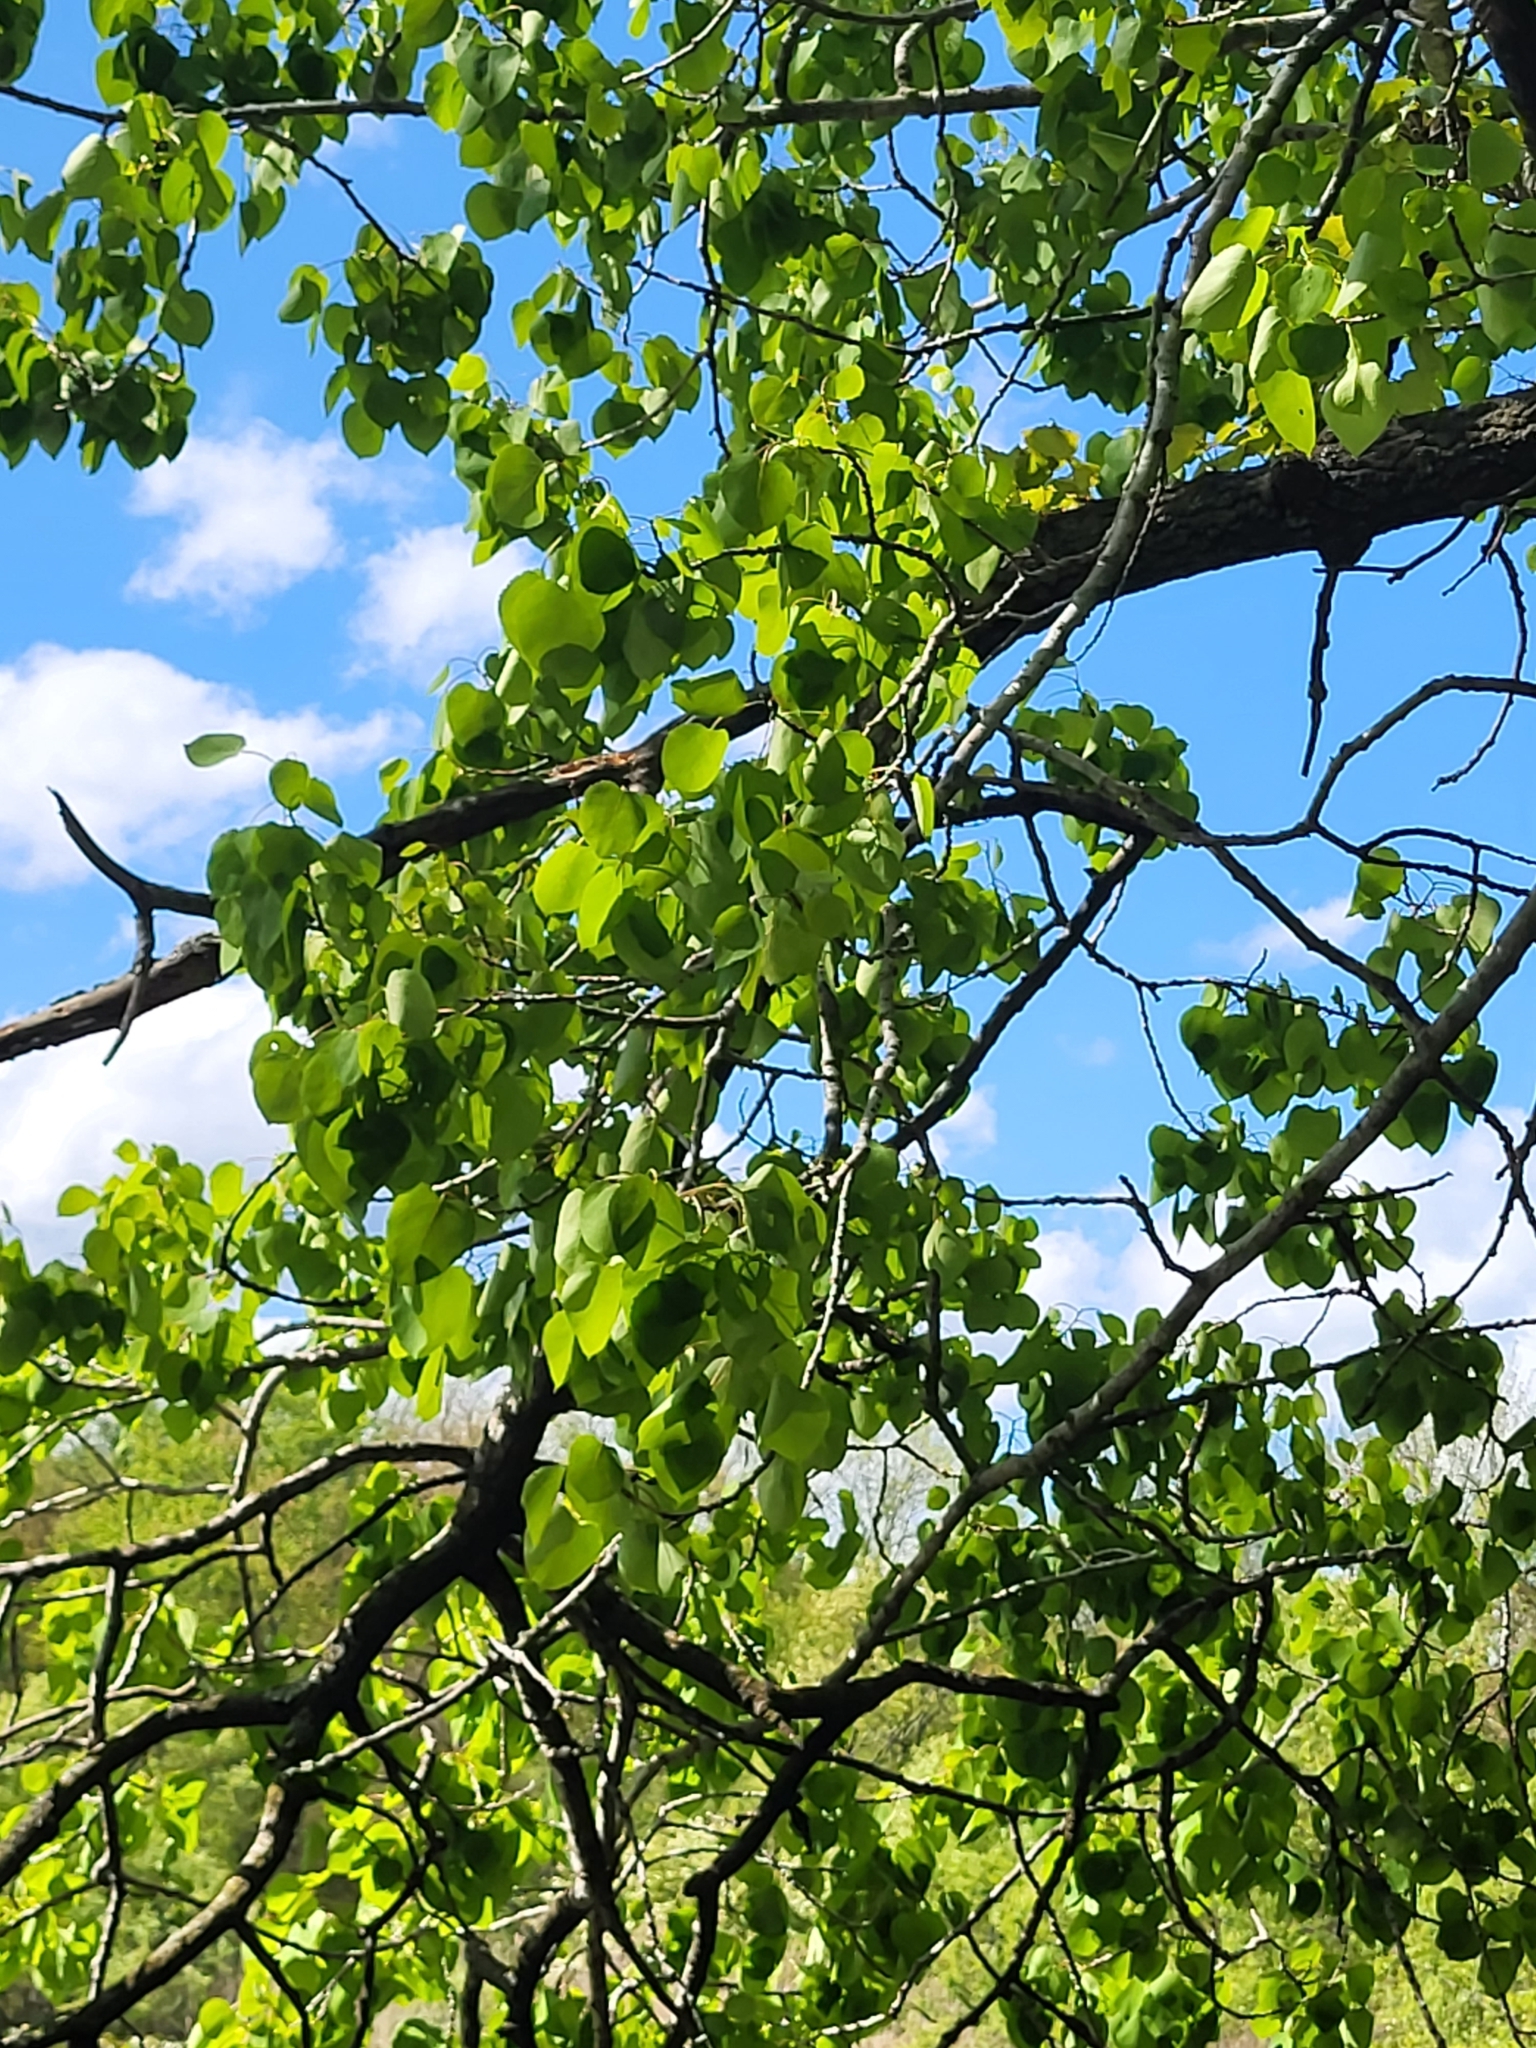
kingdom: Plantae
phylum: Tracheophyta
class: Magnoliopsida
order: Malpighiales
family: Salicaceae
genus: Populus
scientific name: Populus tremuloides
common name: Quaking aspen
